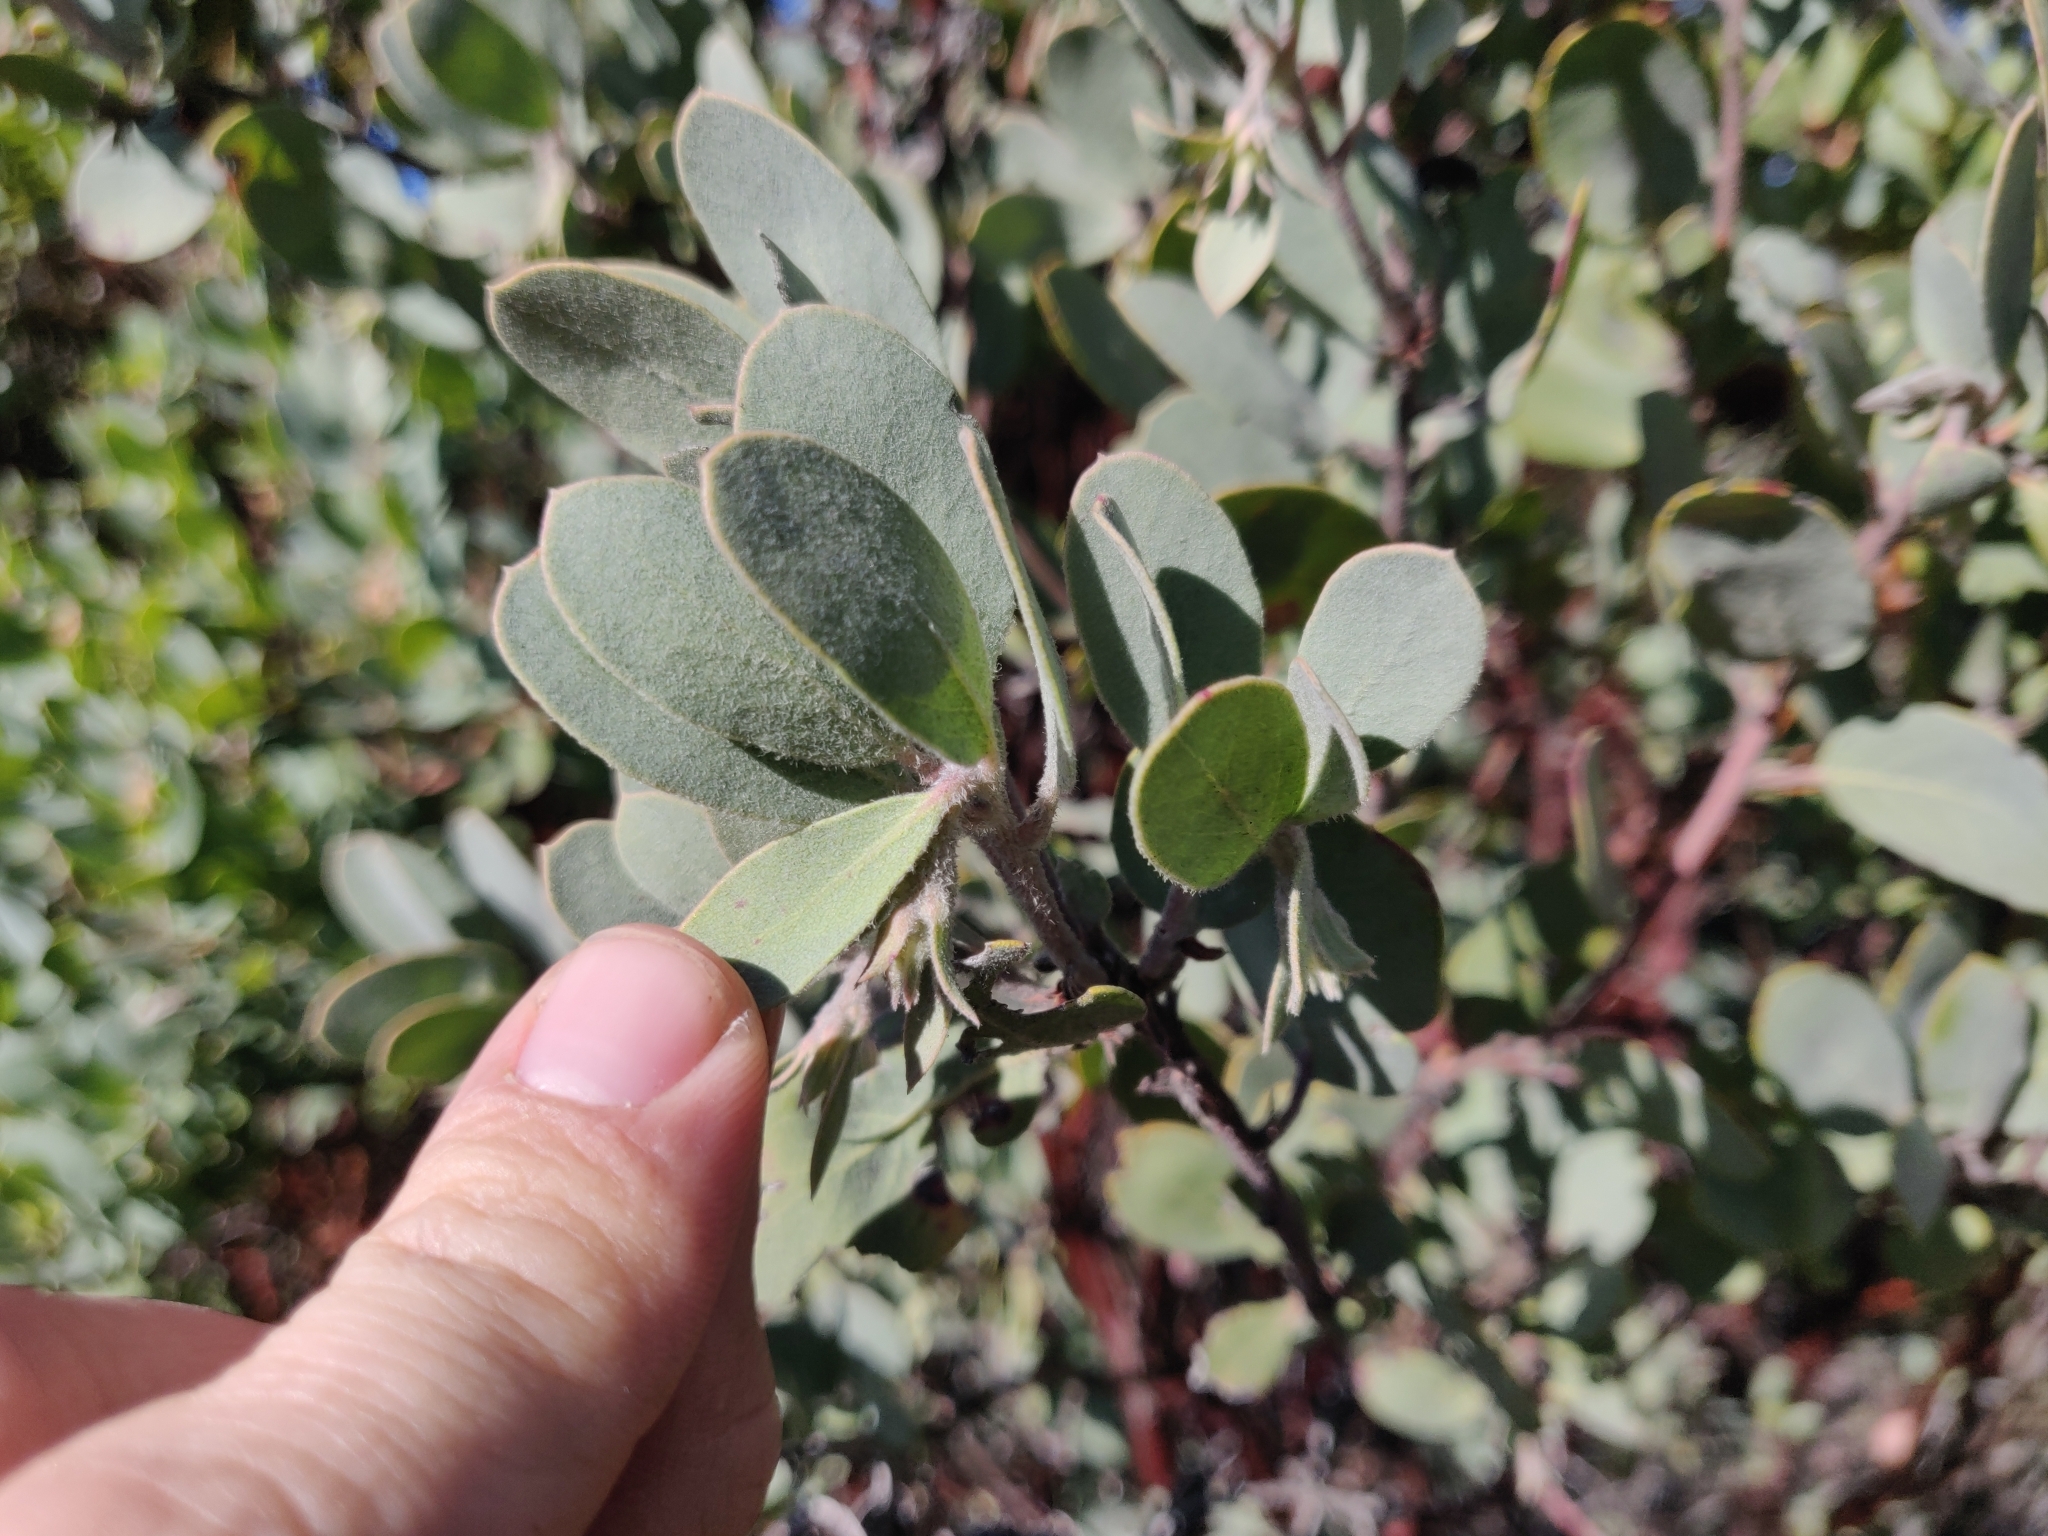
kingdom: Plantae
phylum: Tracheophyta
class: Magnoliopsida
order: Ericales
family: Ericaceae
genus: Arctostaphylos
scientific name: Arctostaphylos silvicola
